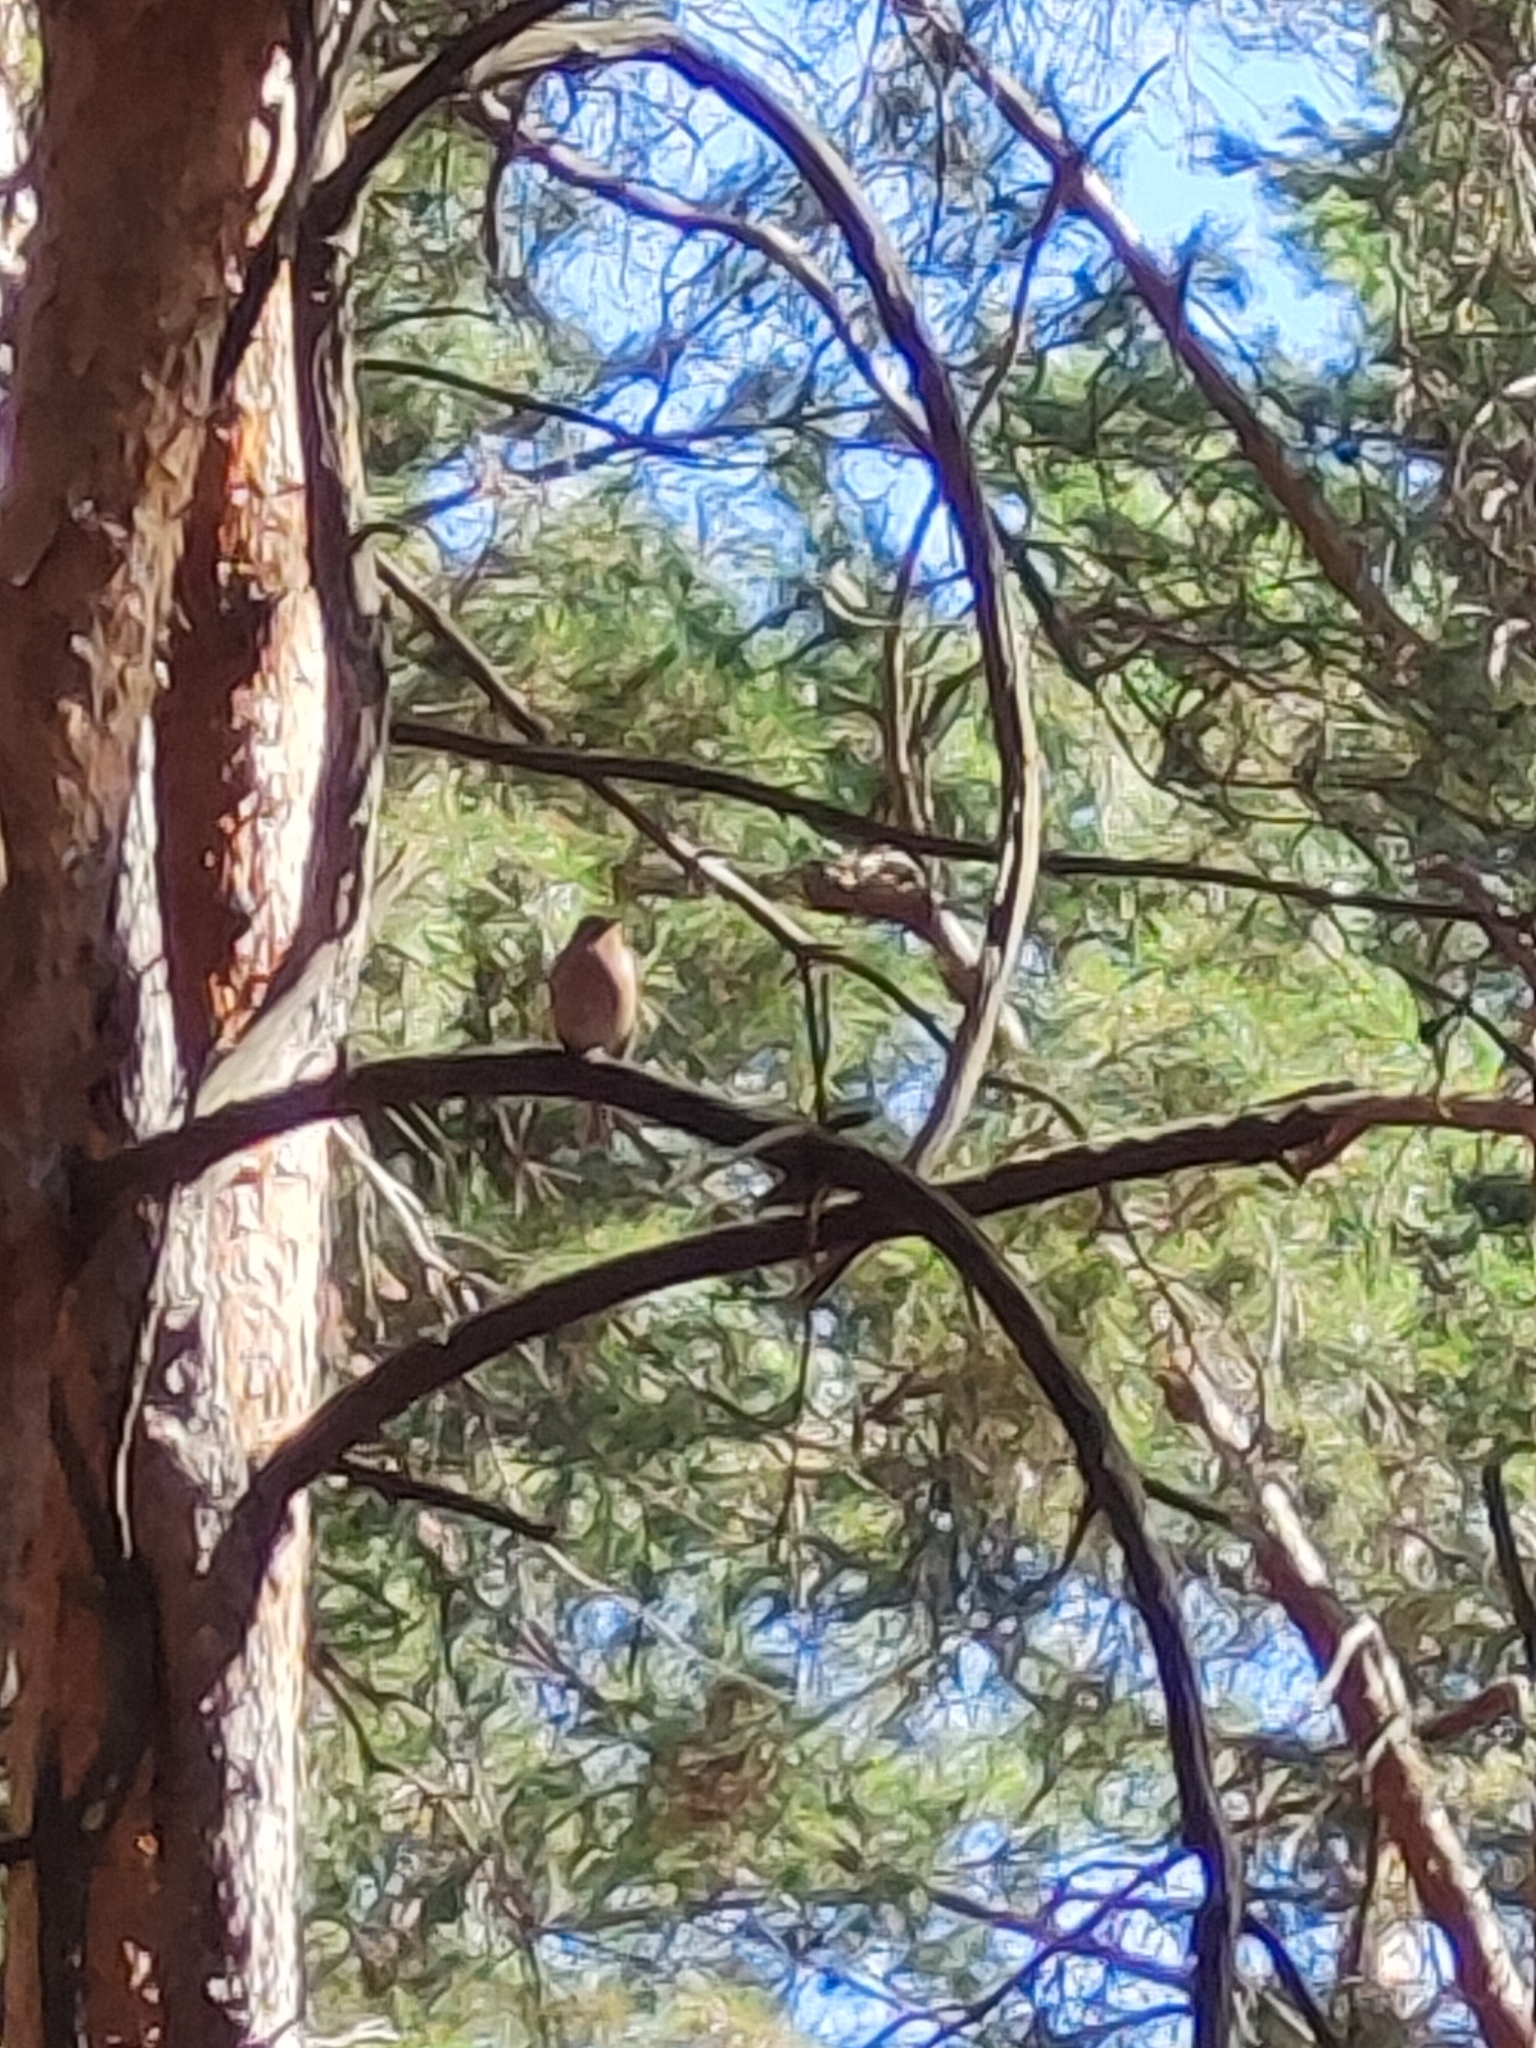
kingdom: Animalia
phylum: Chordata
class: Aves
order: Passeriformes
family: Fringillidae
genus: Fringilla
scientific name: Fringilla coelebs
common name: Common chaffinch
